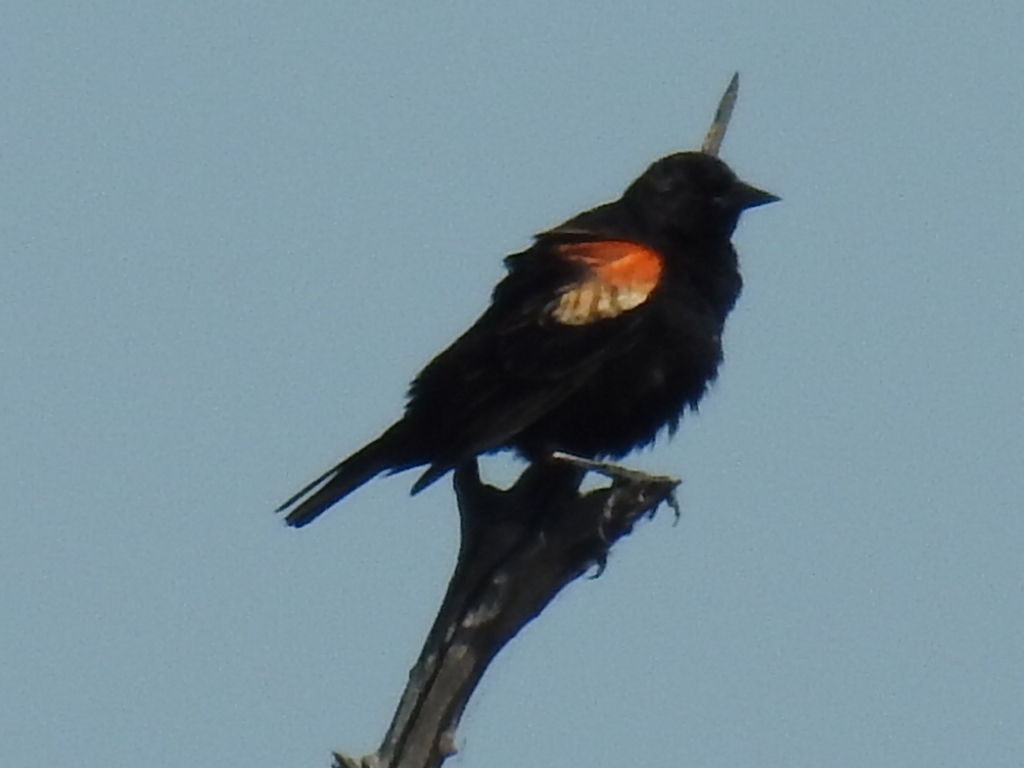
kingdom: Animalia
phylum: Chordata
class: Aves
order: Passeriformes
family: Icteridae
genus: Agelaius
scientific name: Agelaius phoeniceus
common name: Red-winged blackbird
